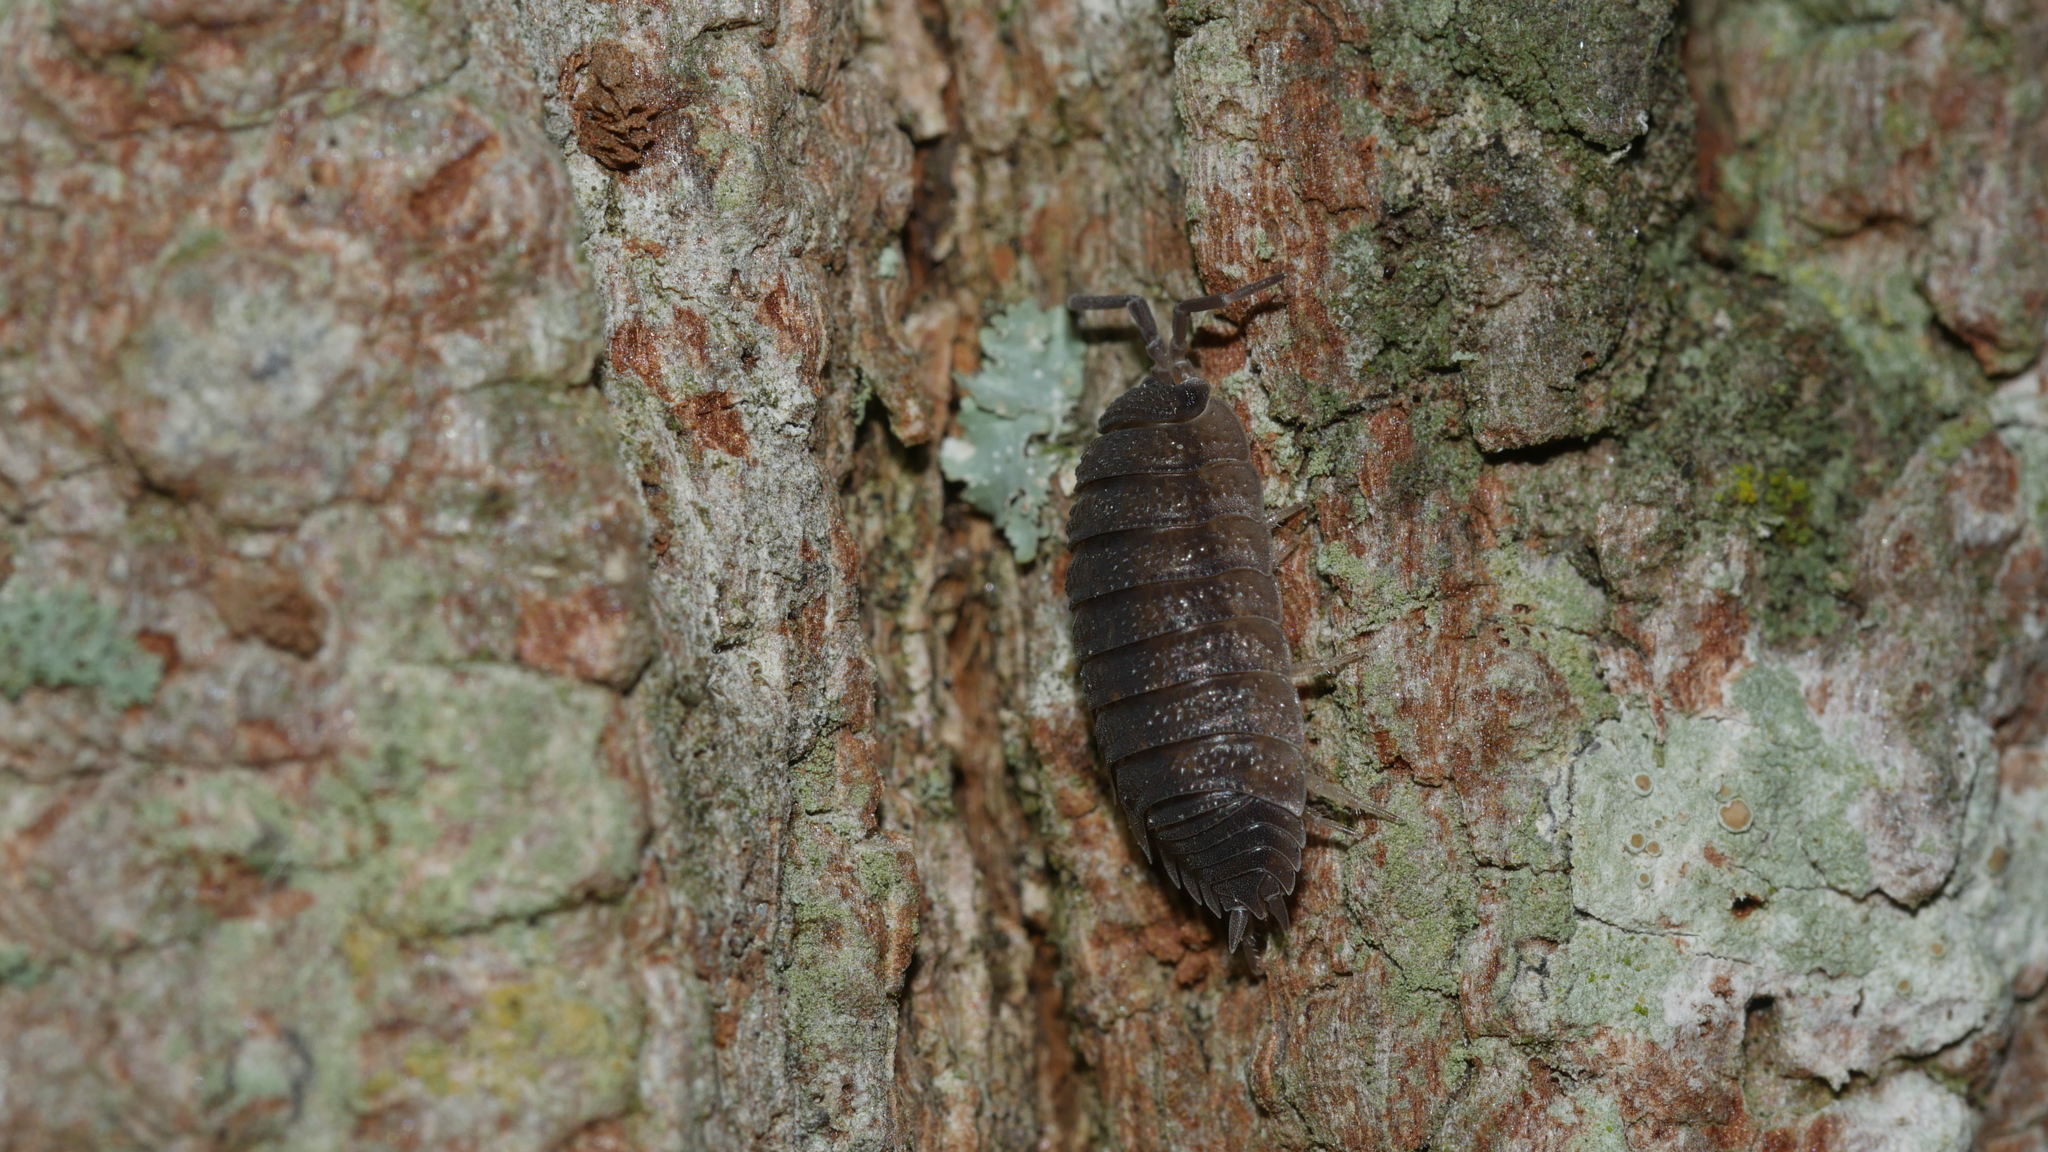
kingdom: Animalia
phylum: Arthropoda
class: Malacostraca
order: Isopoda
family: Porcellionidae
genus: Porcellio
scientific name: Porcellio scaber
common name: Common rough woodlouse
